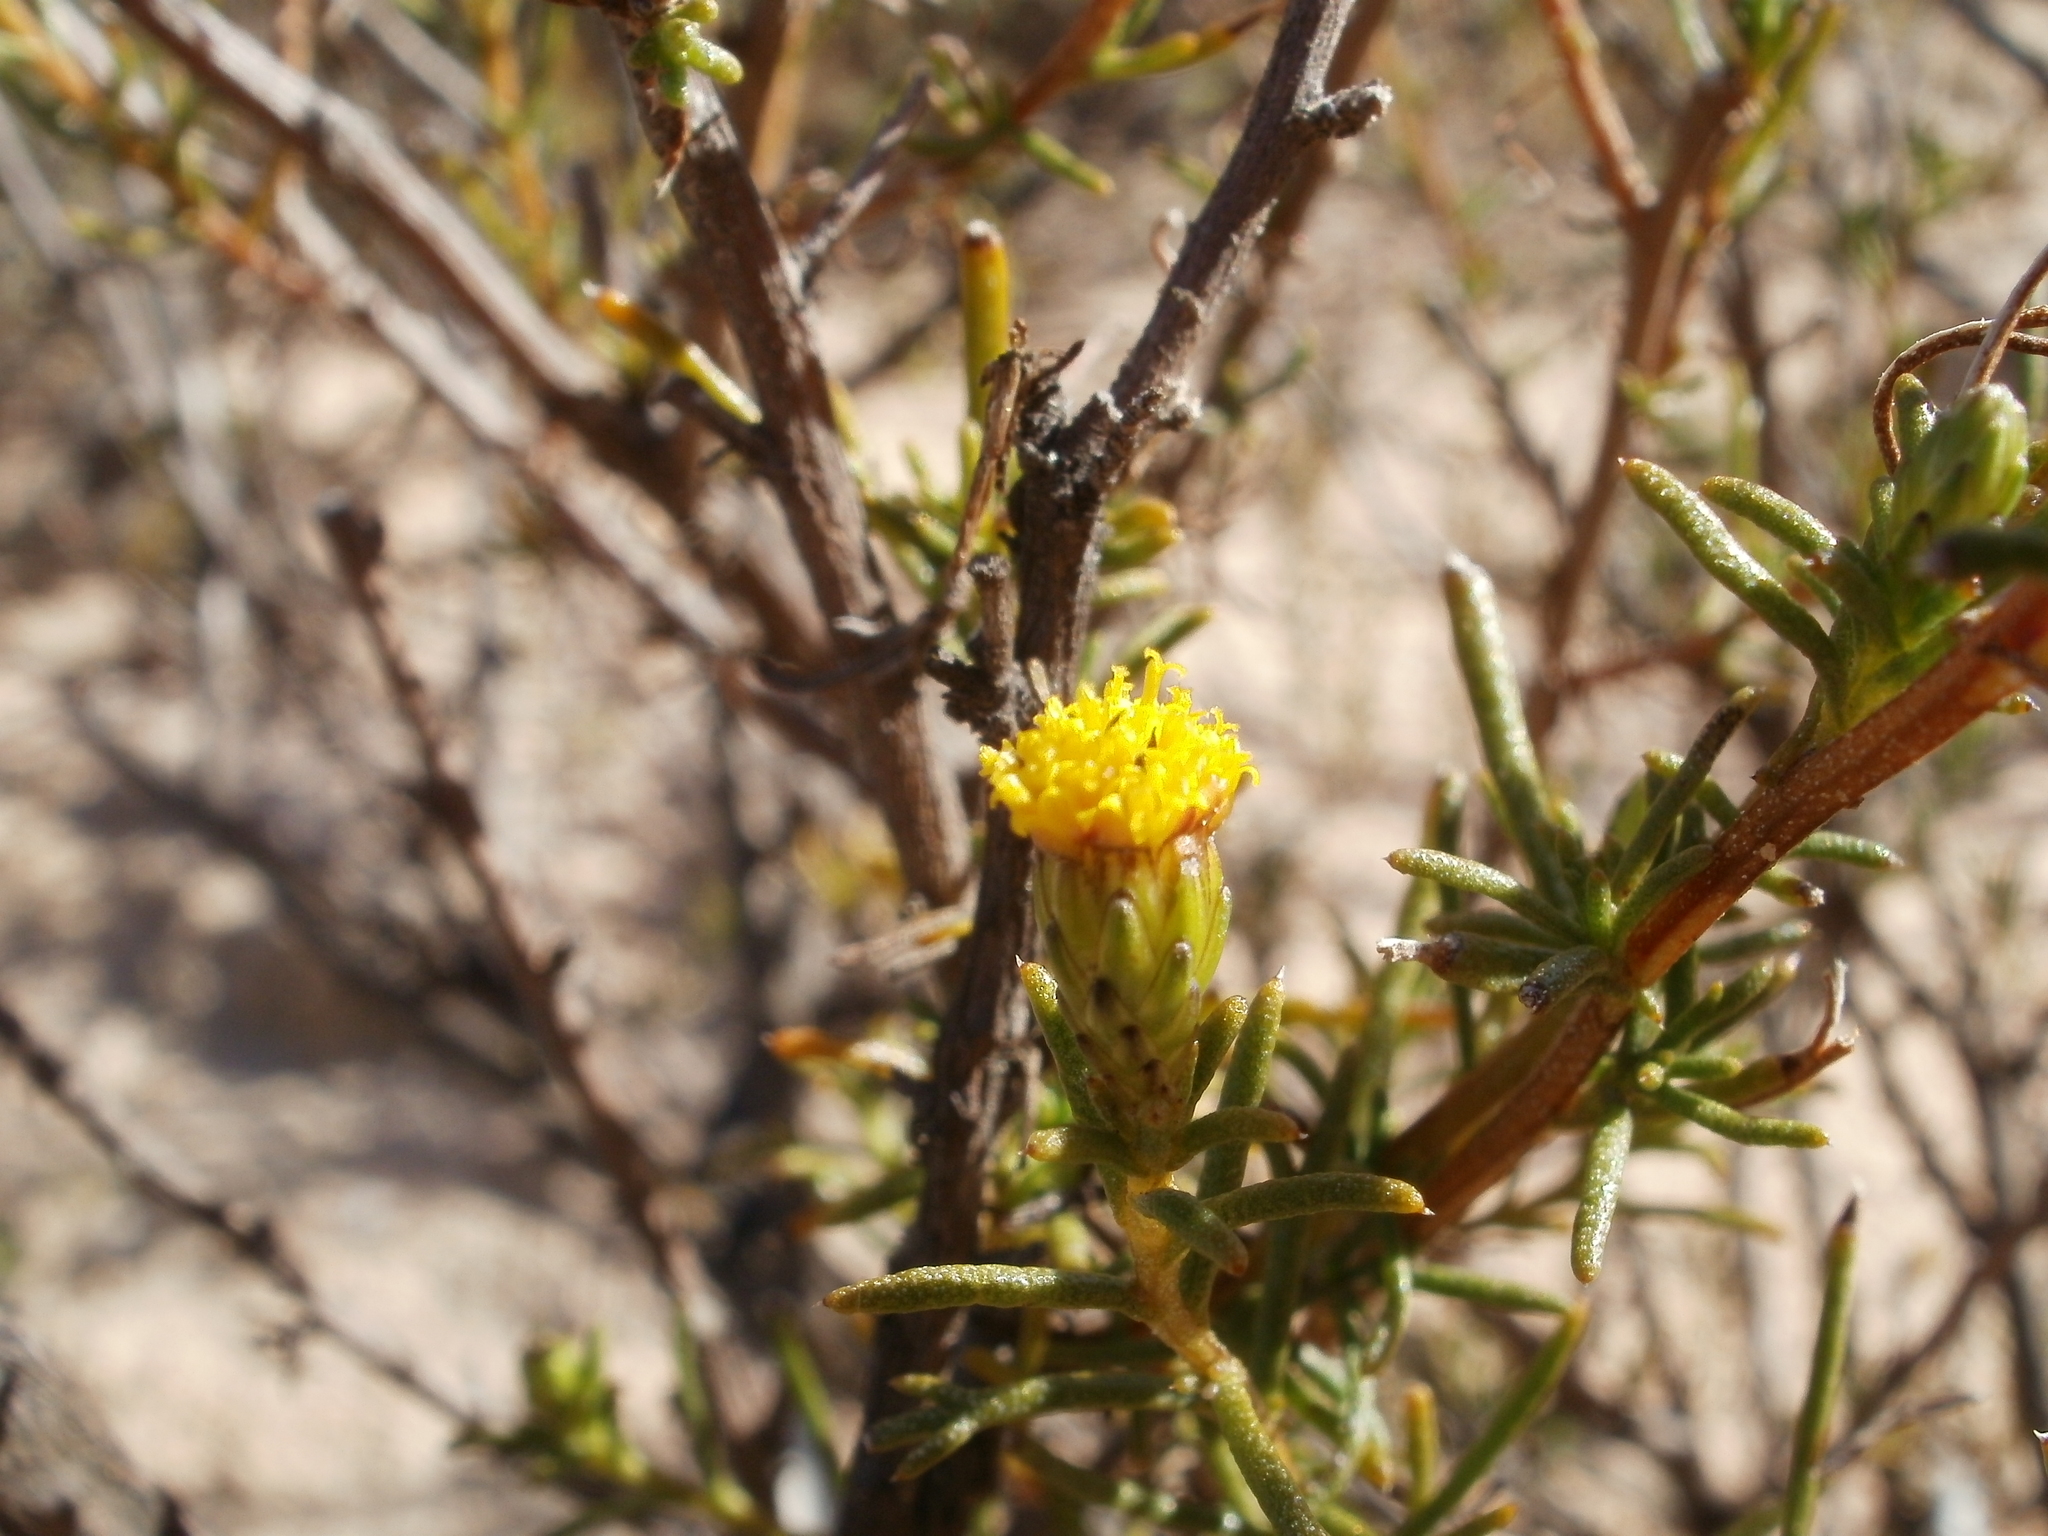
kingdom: Plantae
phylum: Tracheophyta
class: Magnoliopsida
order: Asterales
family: Asteraceae
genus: Marasmodes
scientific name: Marasmodes schlechteri
